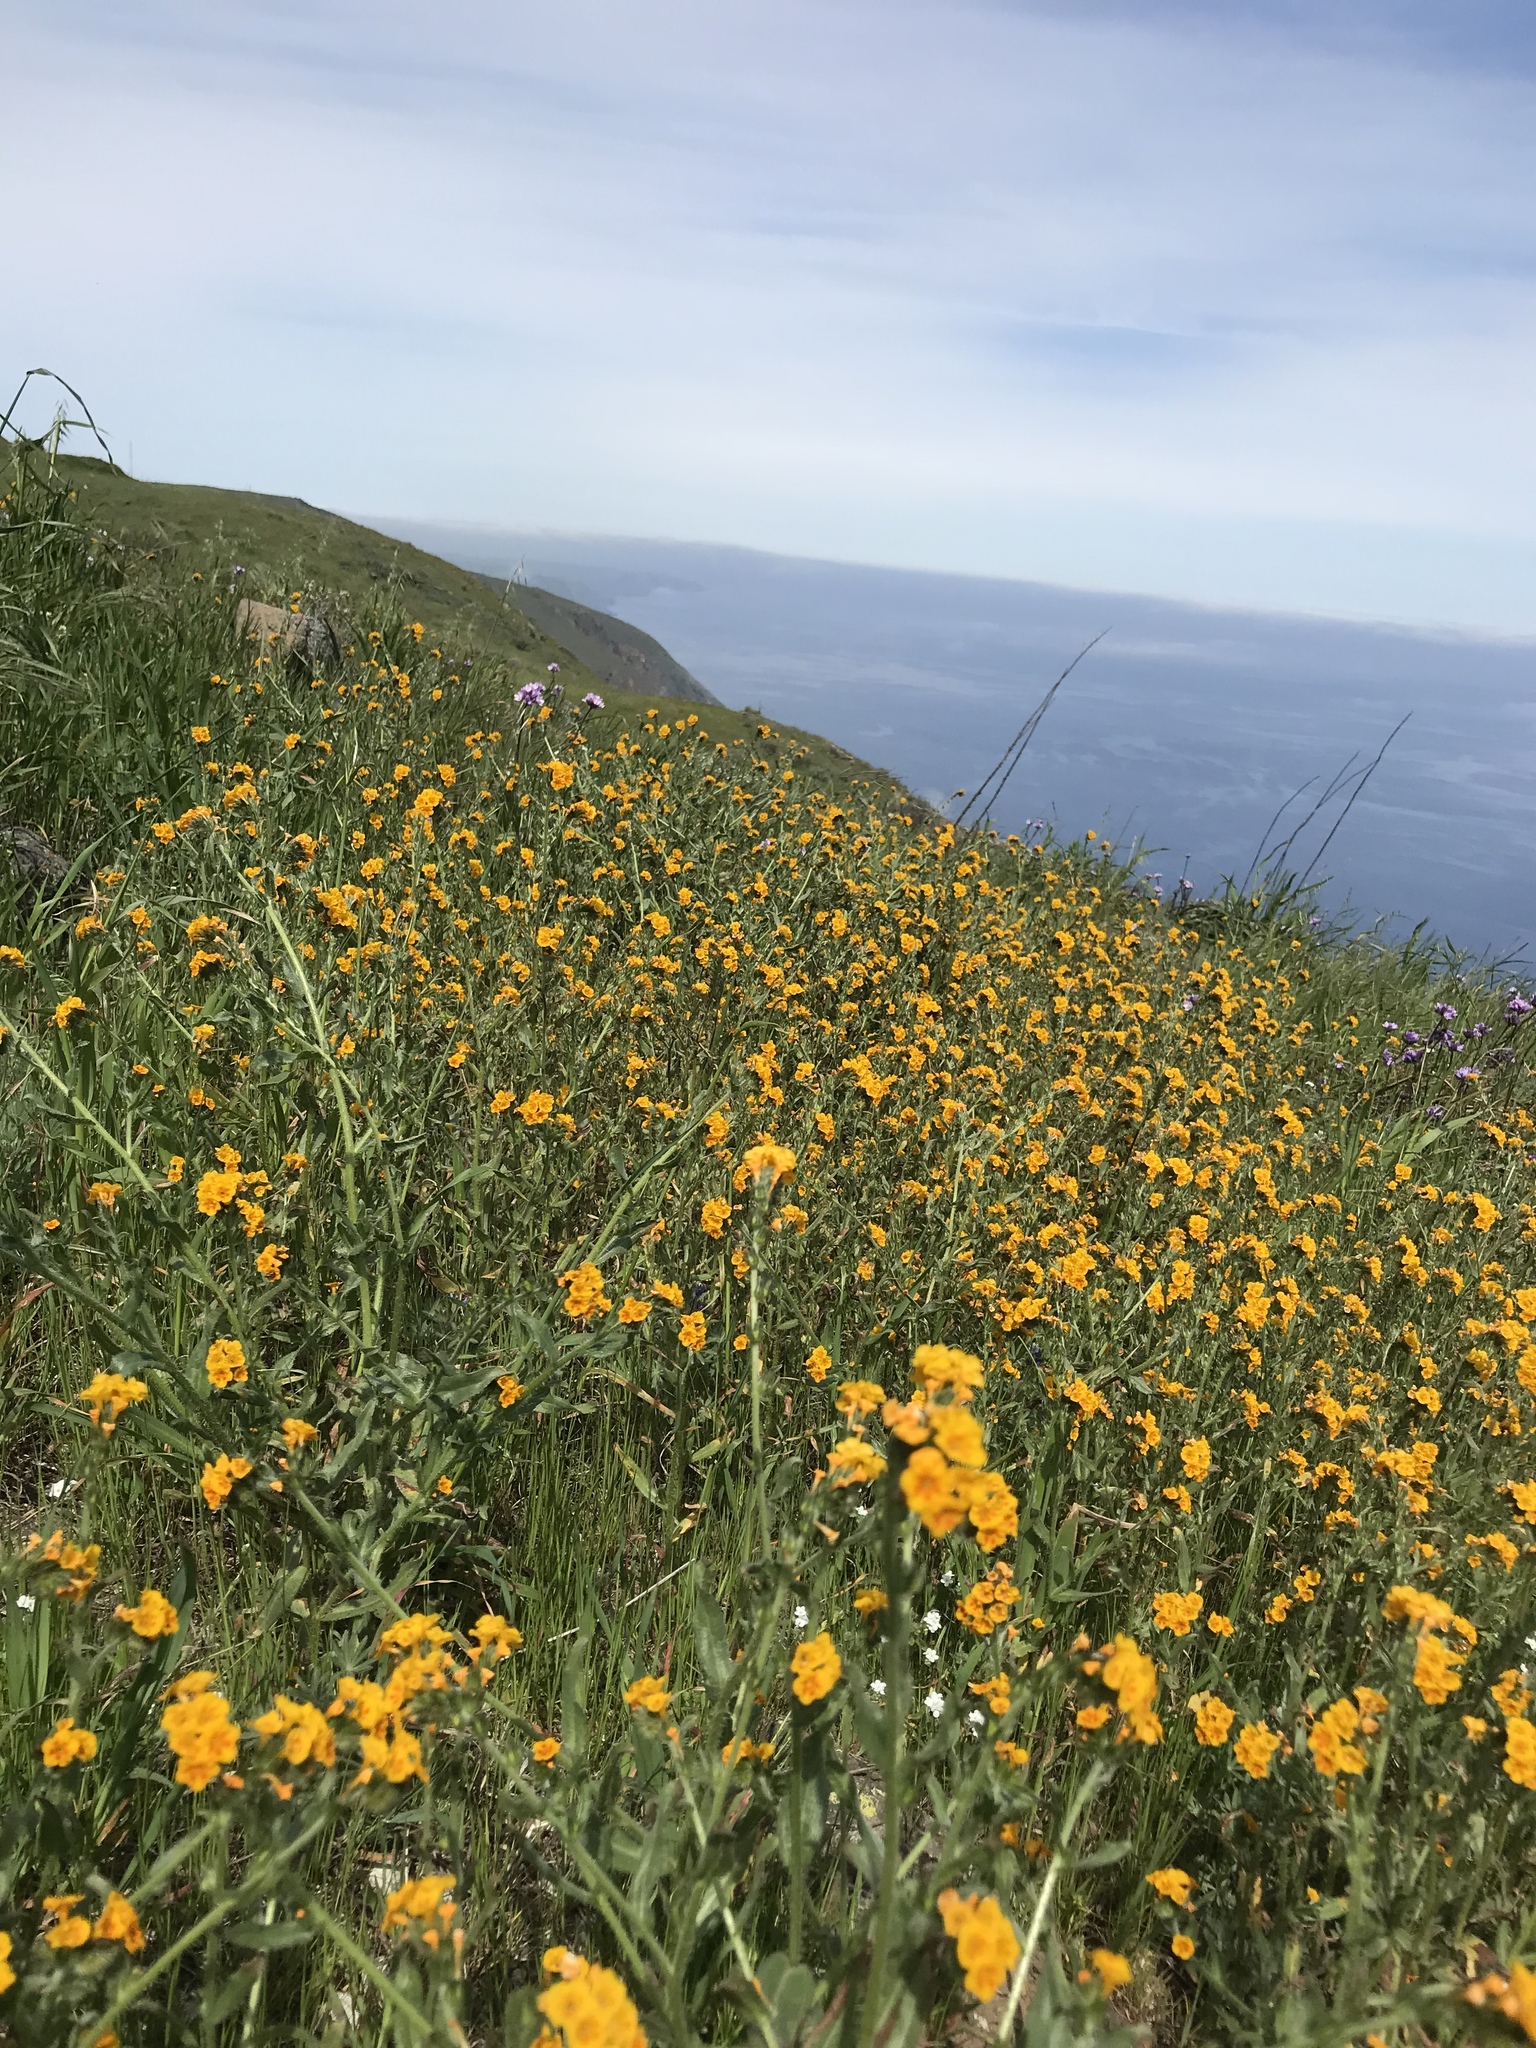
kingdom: Plantae
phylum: Tracheophyta
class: Magnoliopsida
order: Boraginales
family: Boraginaceae
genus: Amsinckia
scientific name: Amsinckia menziesii
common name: Menzies' fiddleneck
